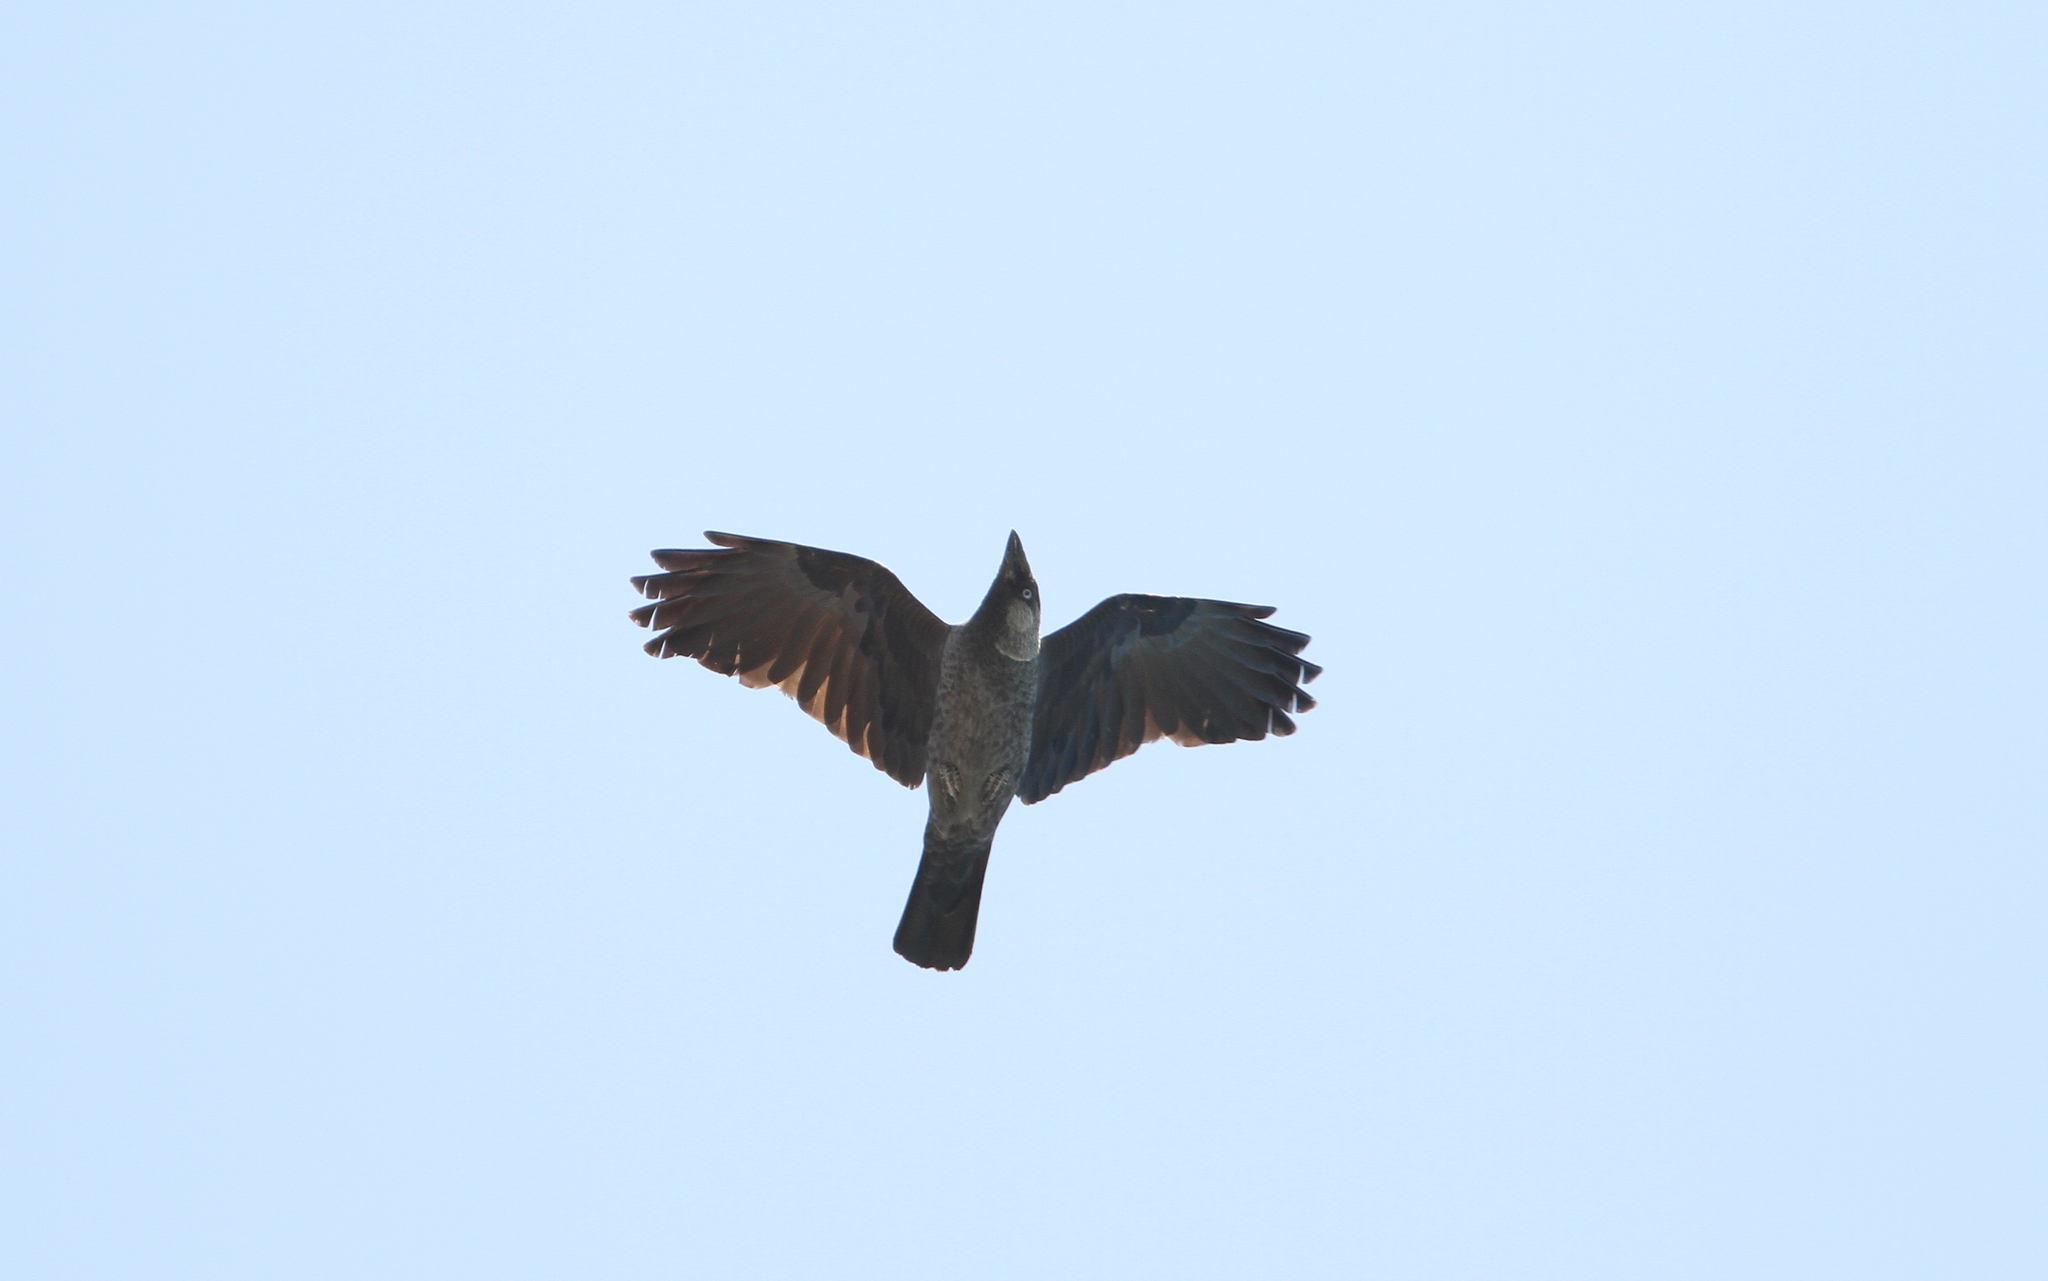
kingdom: Animalia
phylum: Chordata
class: Aves
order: Passeriformes
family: Corvidae
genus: Coloeus
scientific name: Coloeus monedula
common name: Western jackdaw
